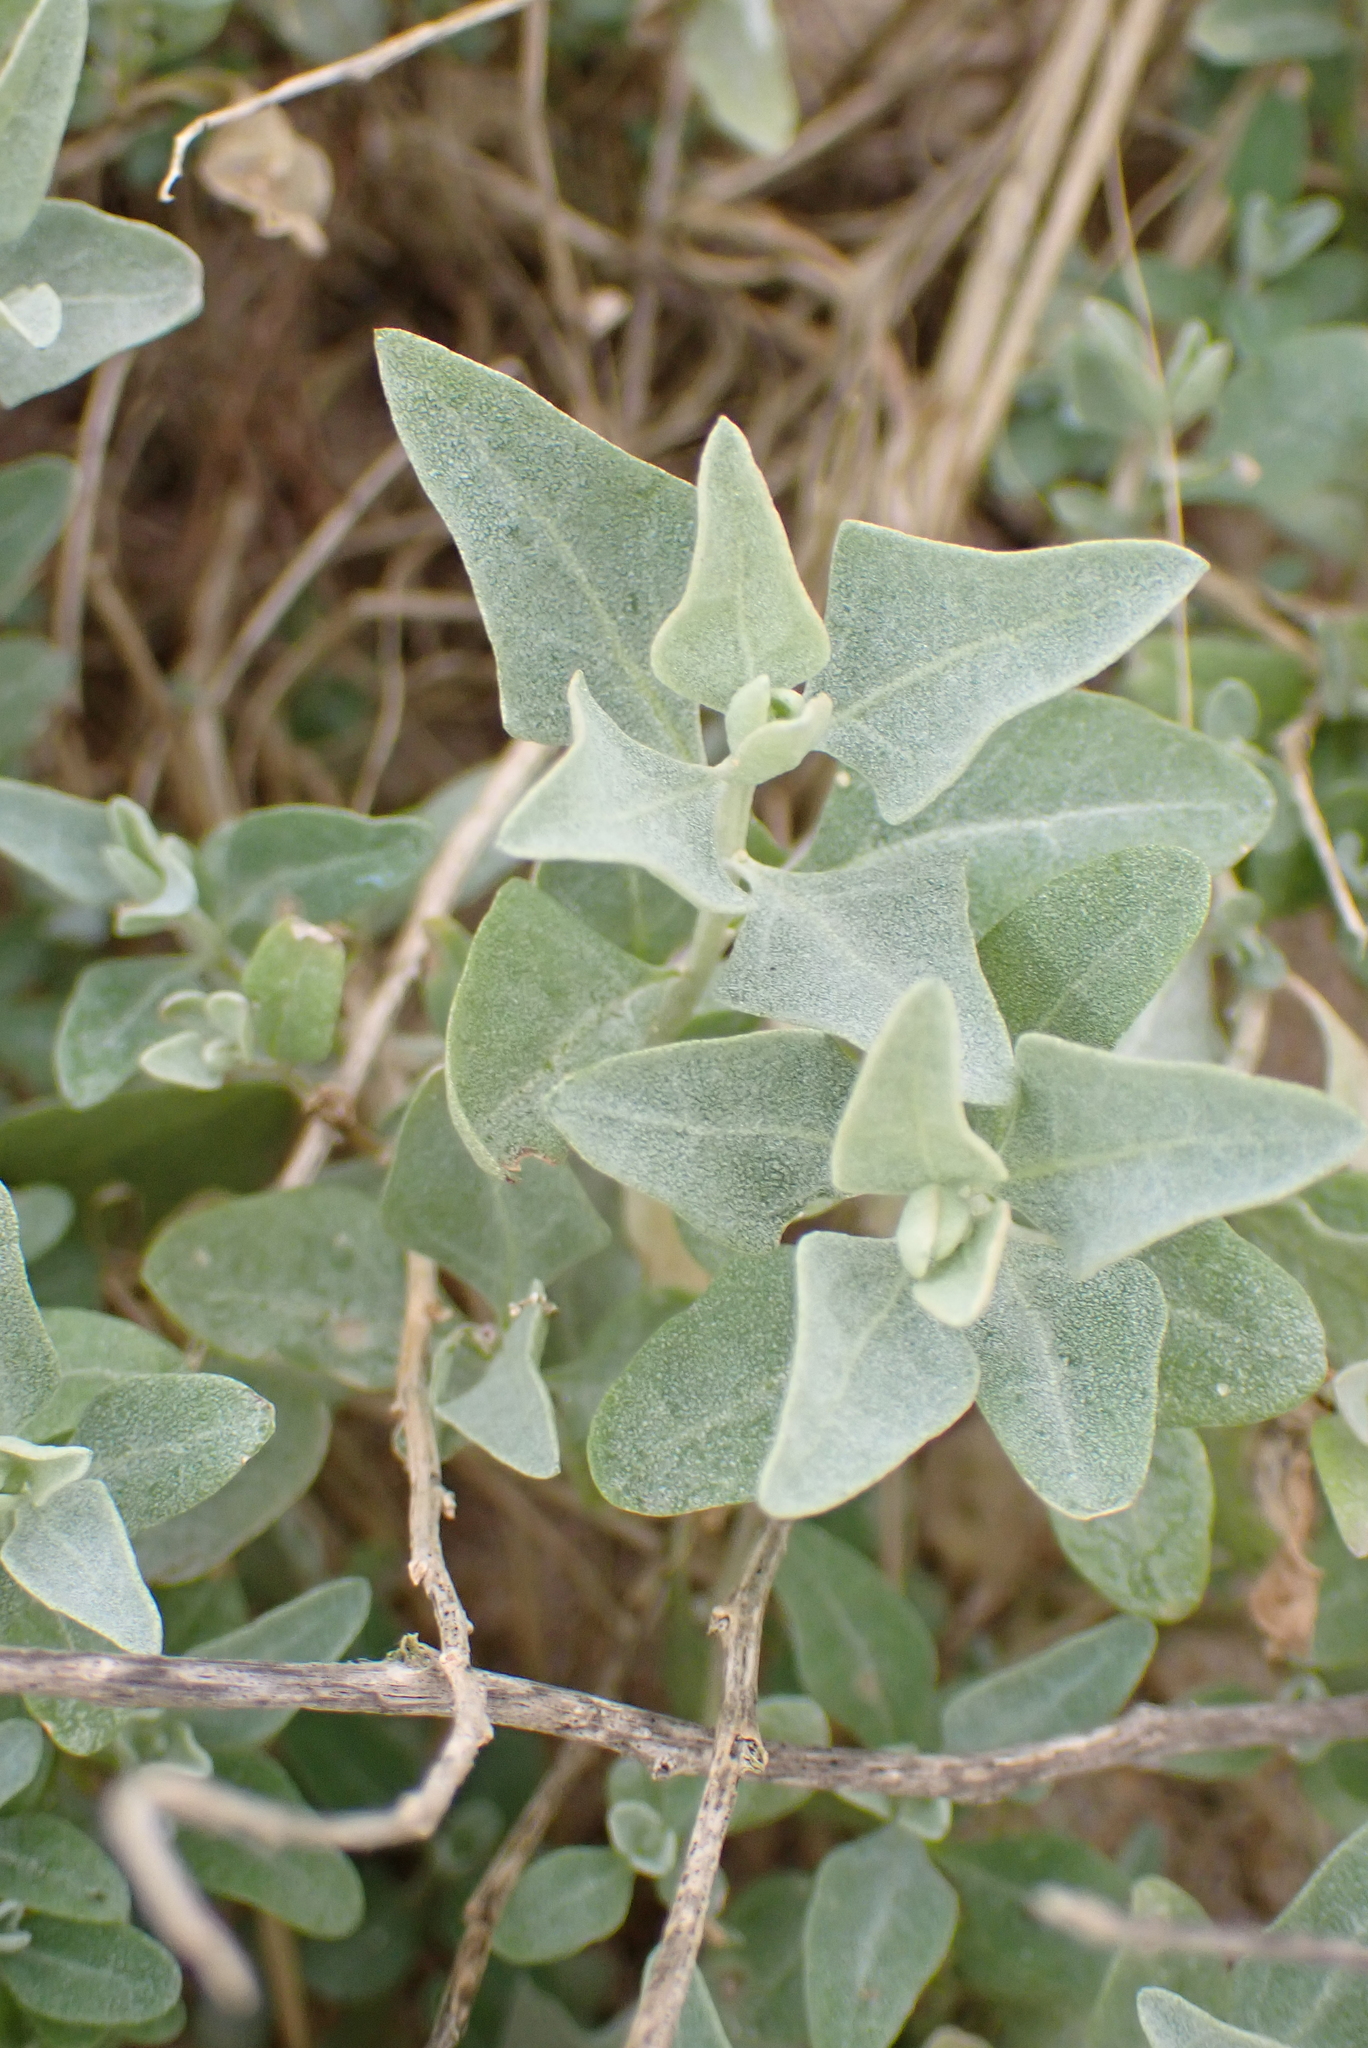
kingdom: Plantae
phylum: Tracheophyta
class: Magnoliopsida
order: Caryophyllales
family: Amaranthaceae
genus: Atriplex
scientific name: Atriplex halimus
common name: Shrubby orache
